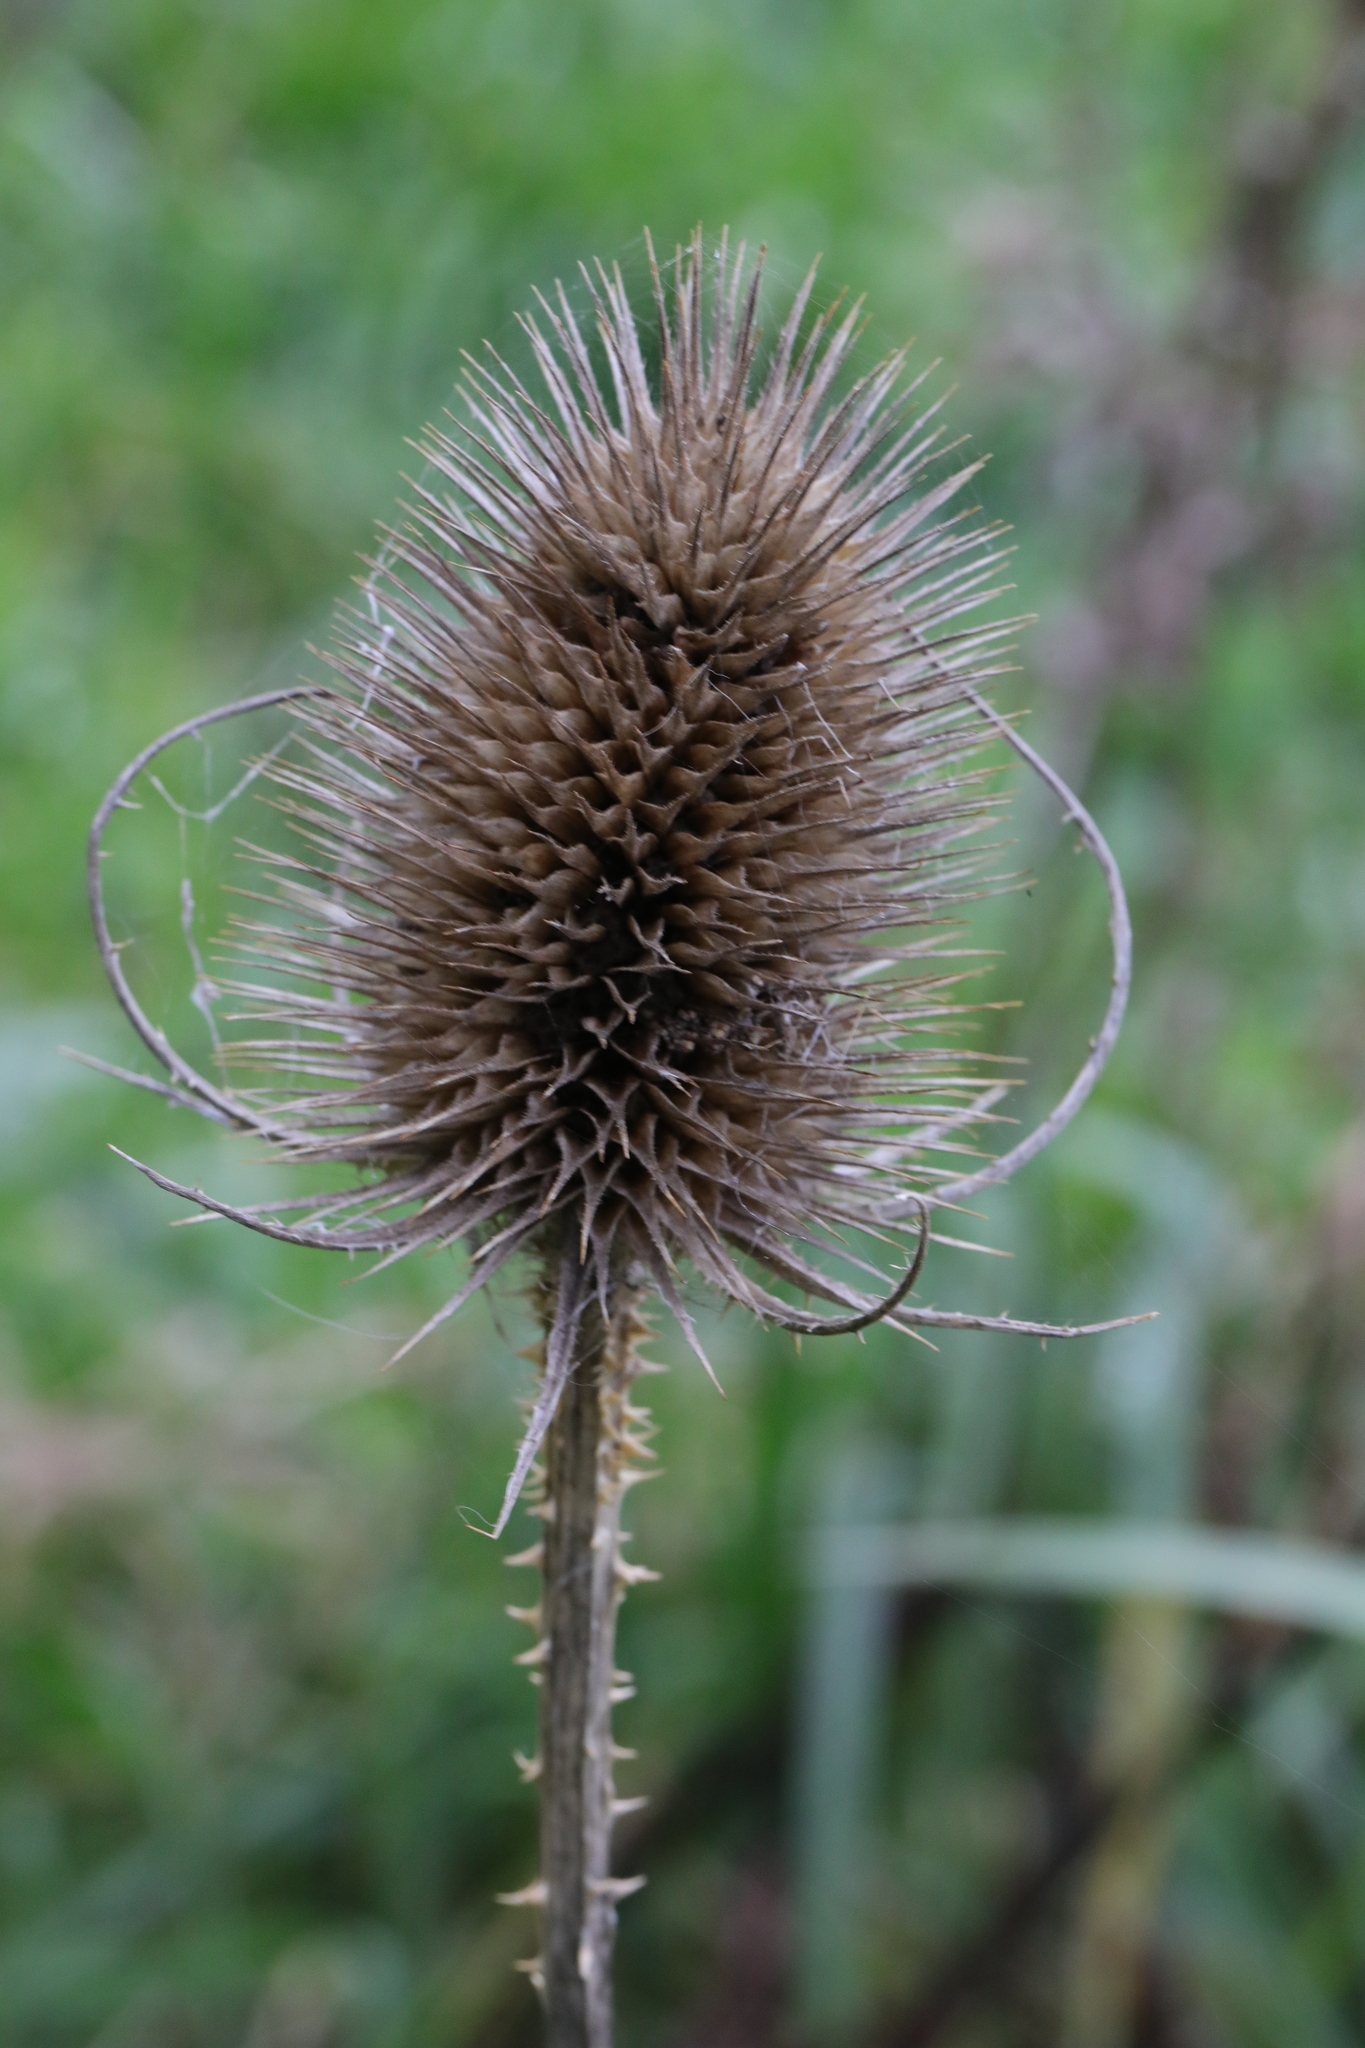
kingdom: Plantae
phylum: Tracheophyta
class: Magnoliopsida
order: Dipsacales
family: Caprifoliaceae
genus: Dipsacus
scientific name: Dipsacus fullonum
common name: Teasel
